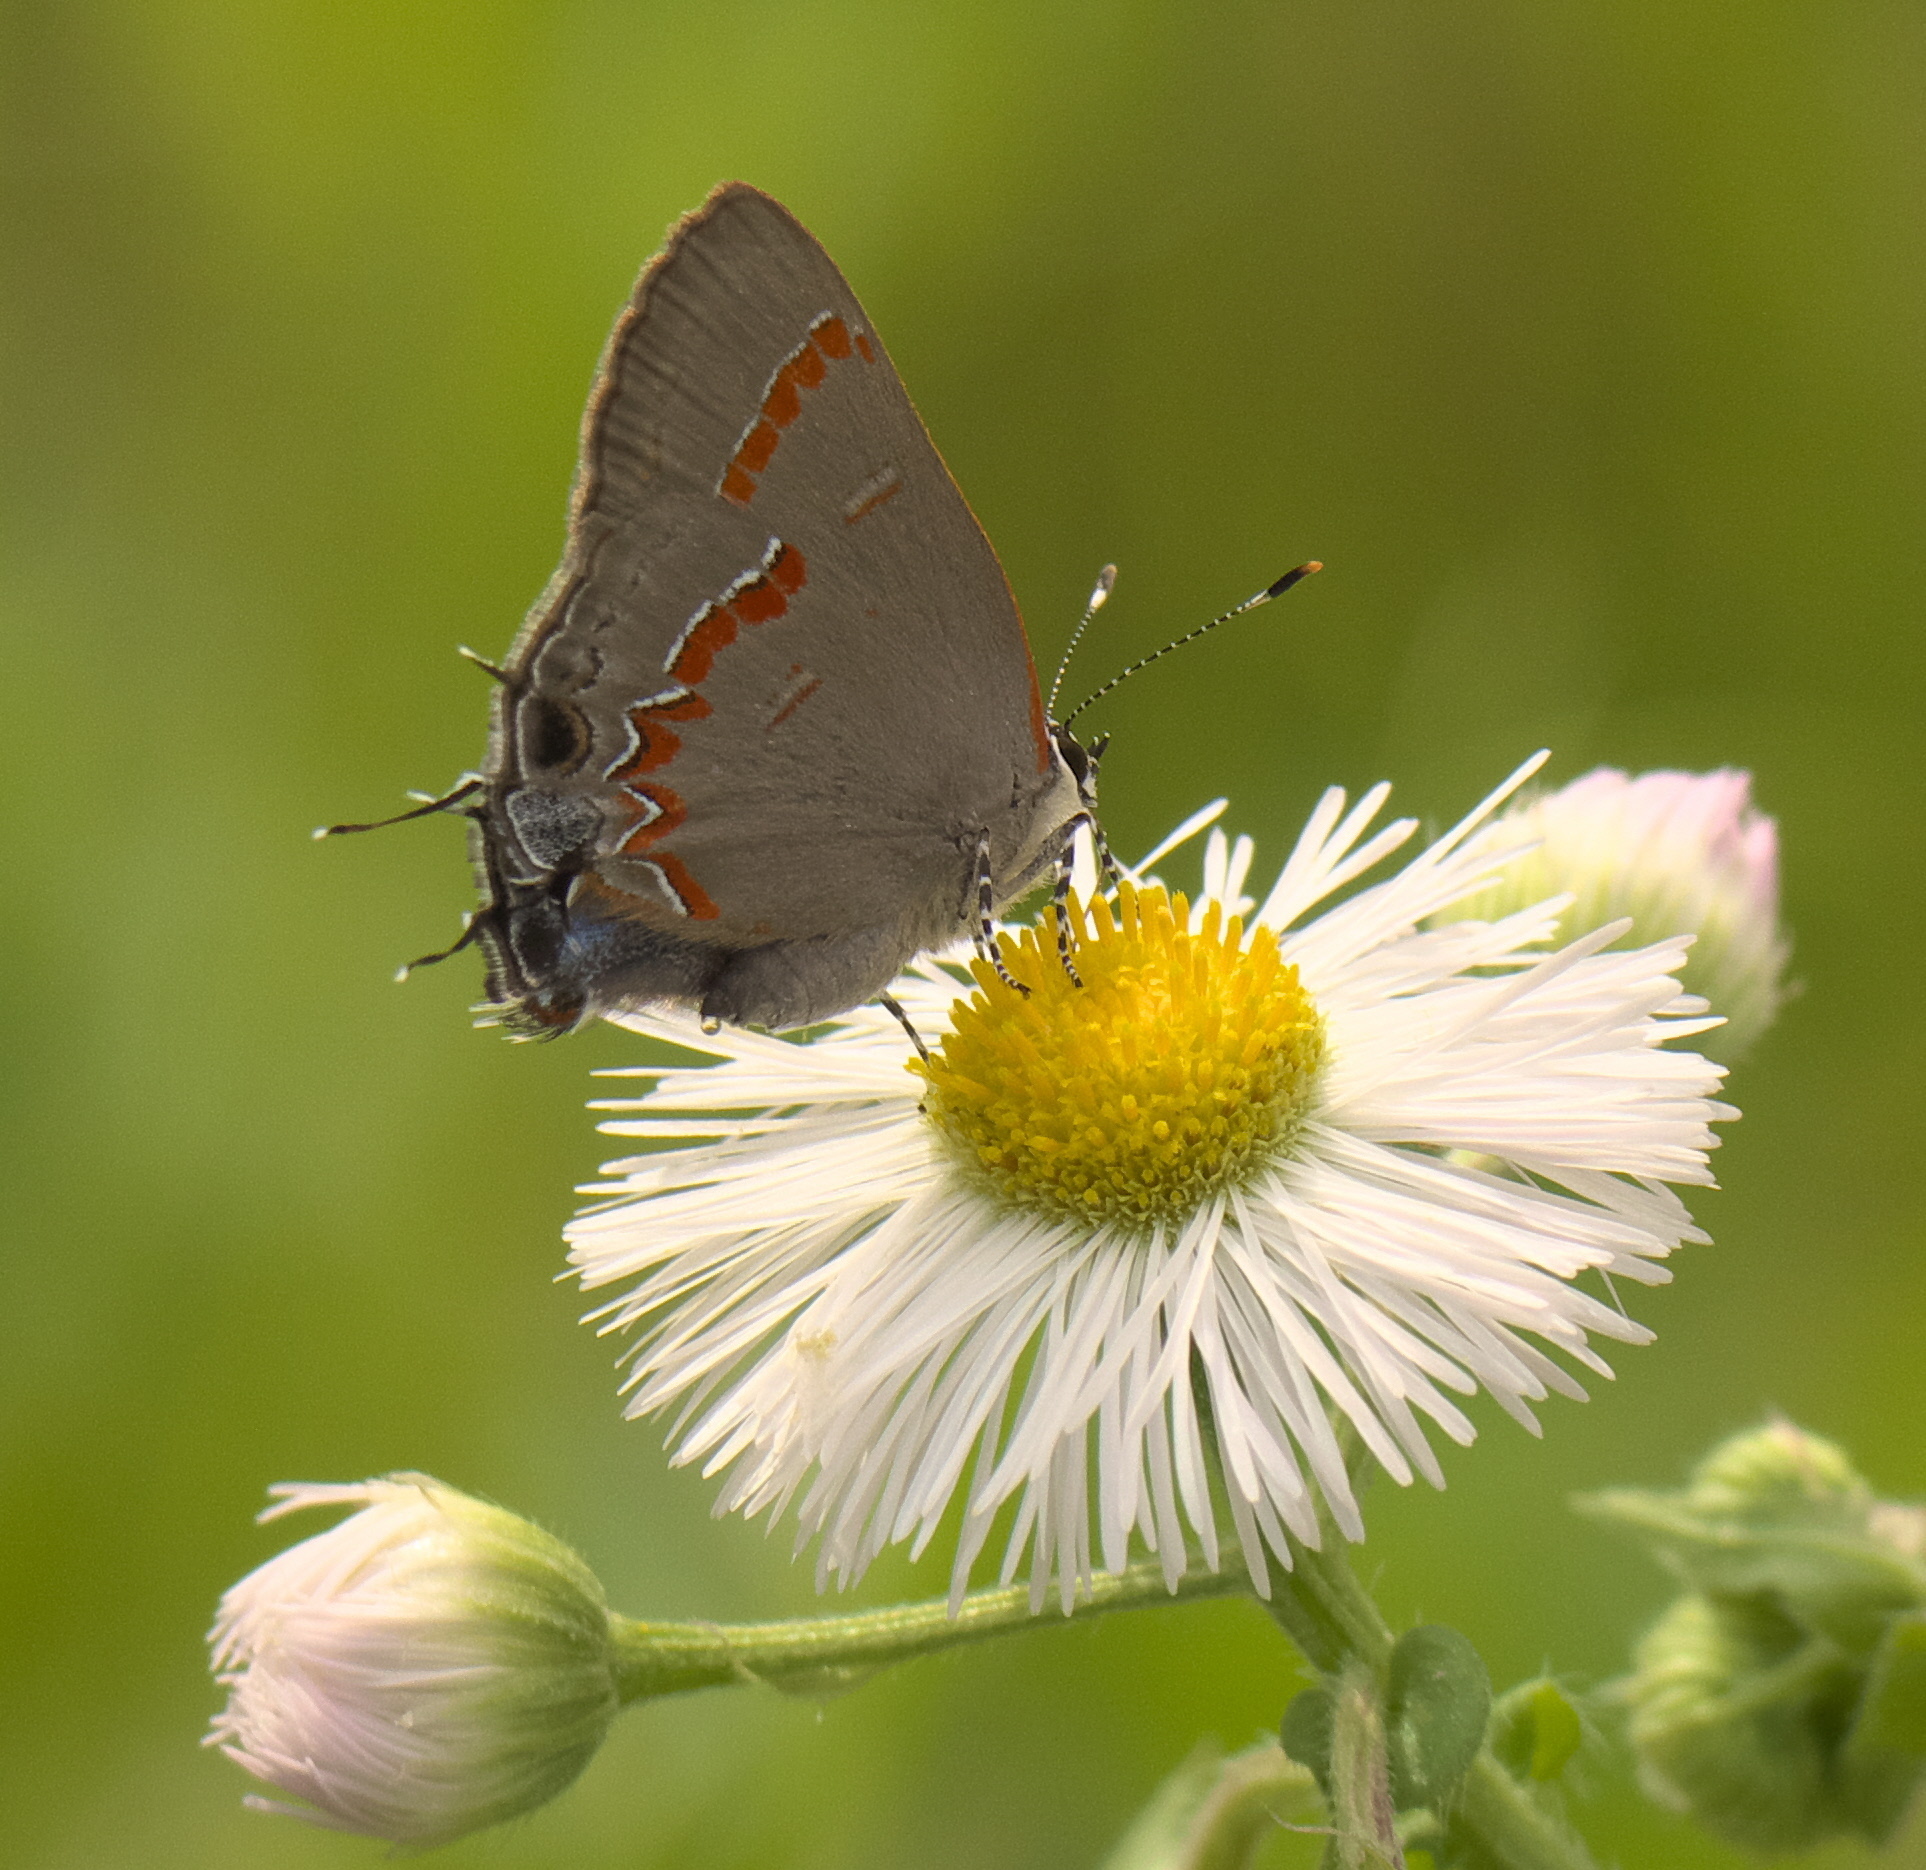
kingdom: Animalia
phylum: Arthropoda
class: Insecta
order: Lepidoptera
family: Lycaenidae
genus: Calycopis
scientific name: Calycopis cecrops
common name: Red-banded hairstreak
